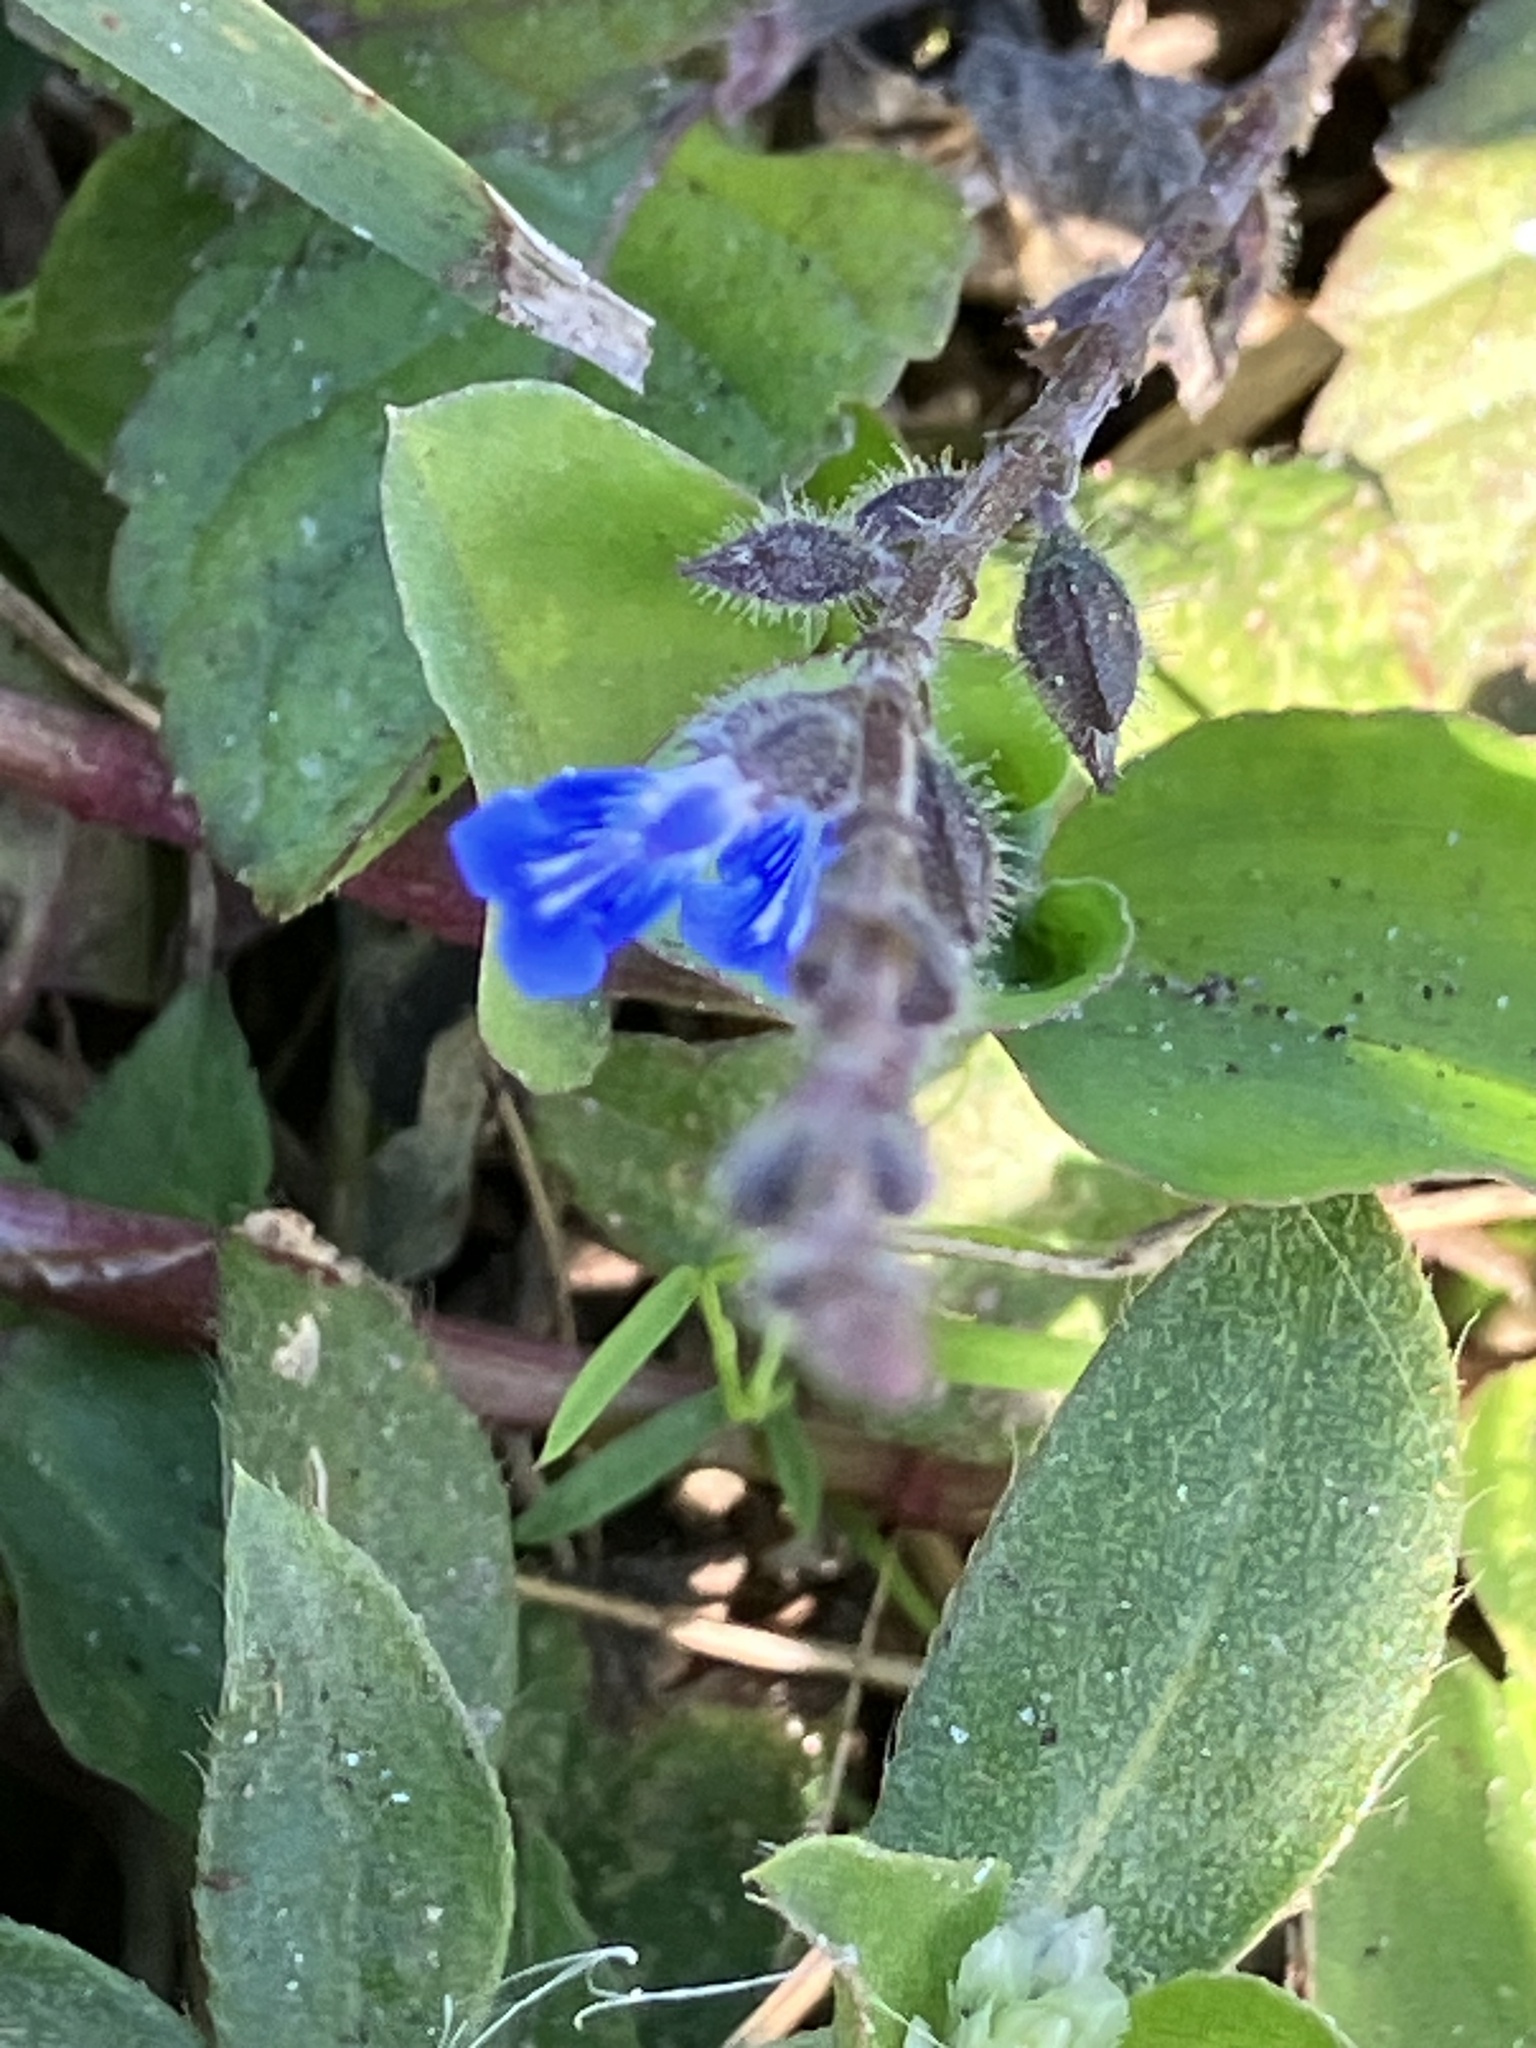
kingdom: Plantae
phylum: Tracheophyta
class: Magnoliopsida
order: Lamiales
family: Lamiaceae
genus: Salvia
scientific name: Salvia misella
